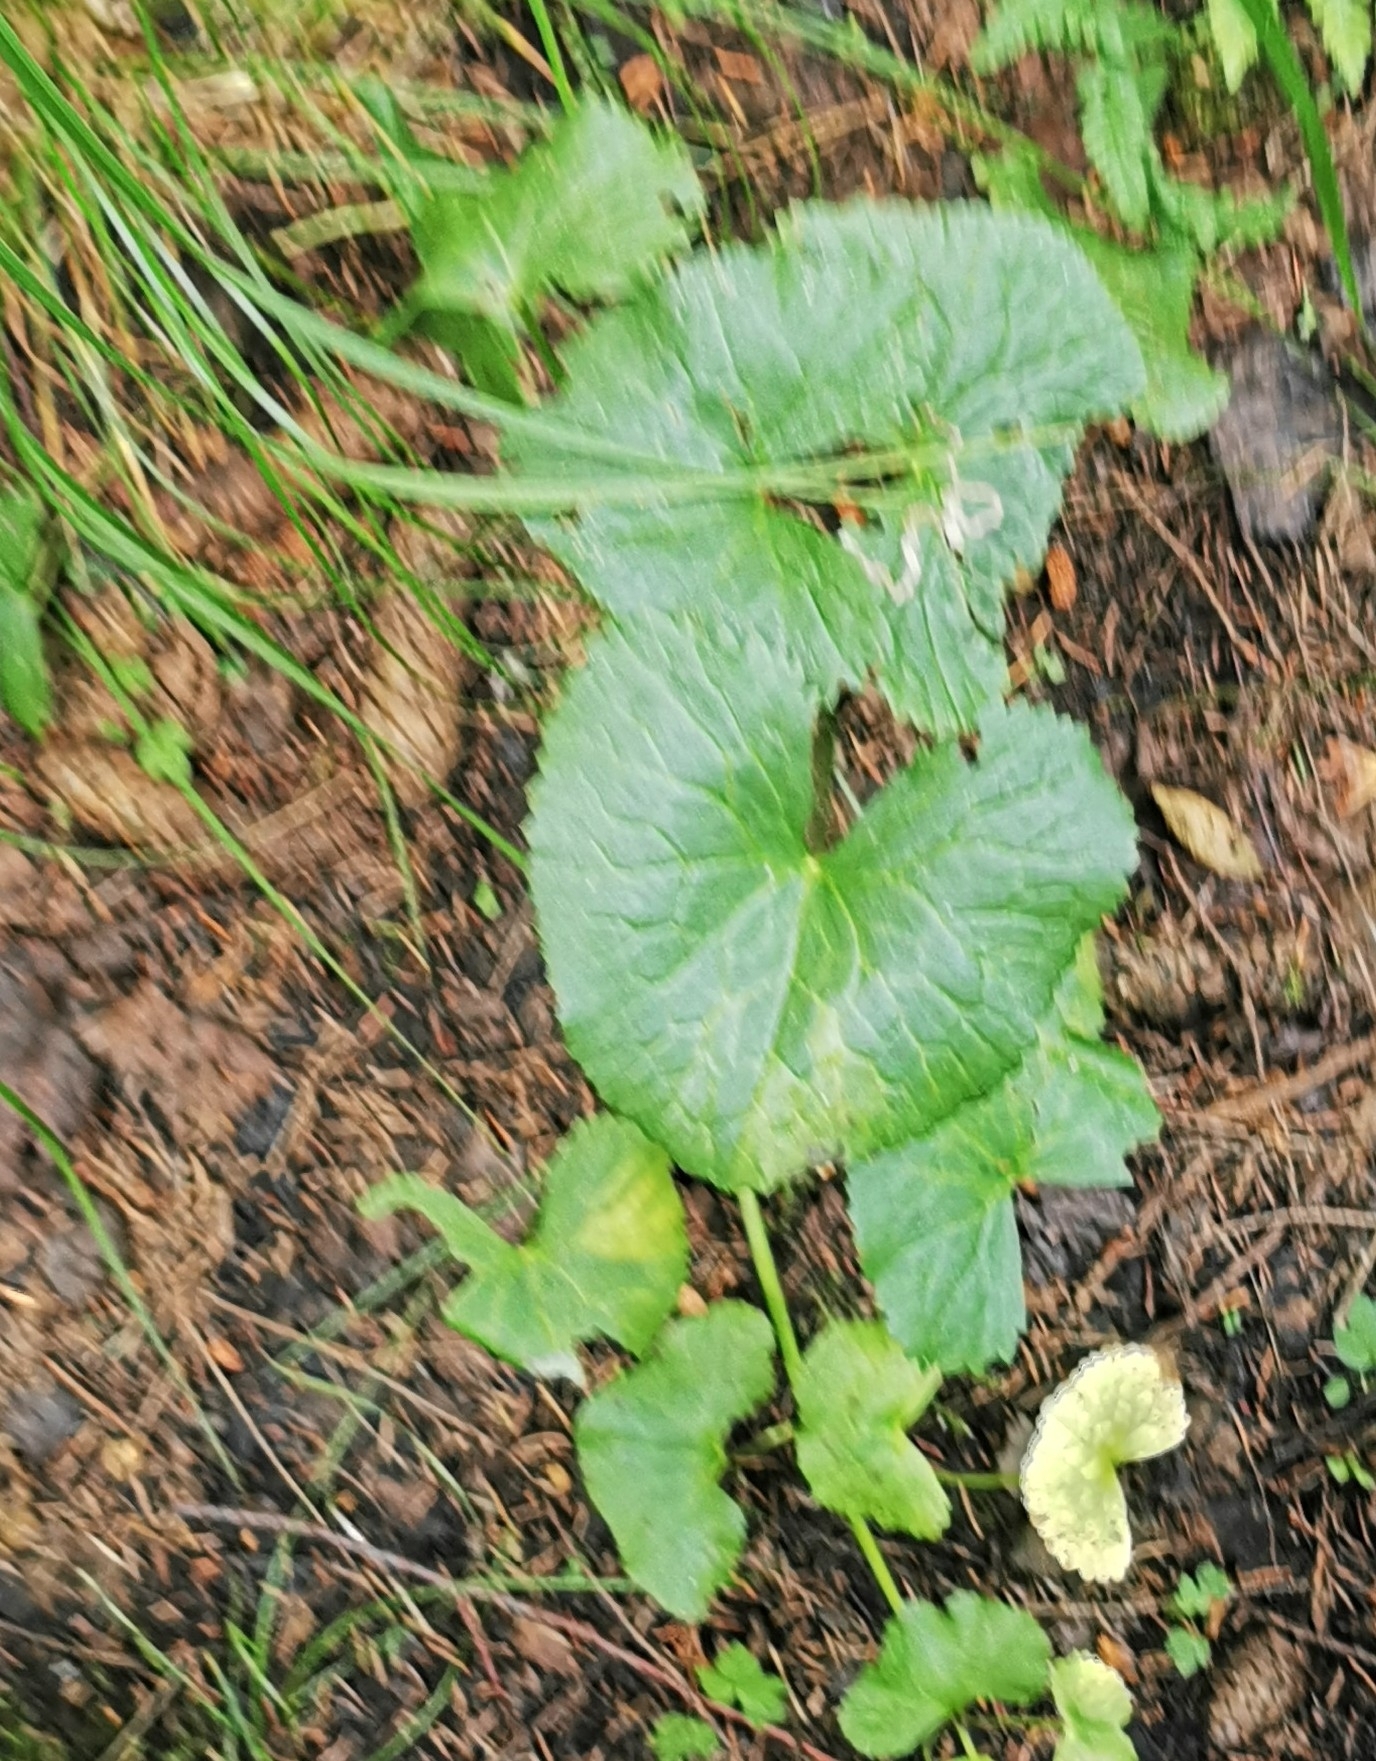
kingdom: Plantae
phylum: Tracheophyta
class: Magnoliopsida
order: Ranunculales
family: Ranunculaceae
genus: Caltha
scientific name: Caltha palustris
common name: Marsh marigold
